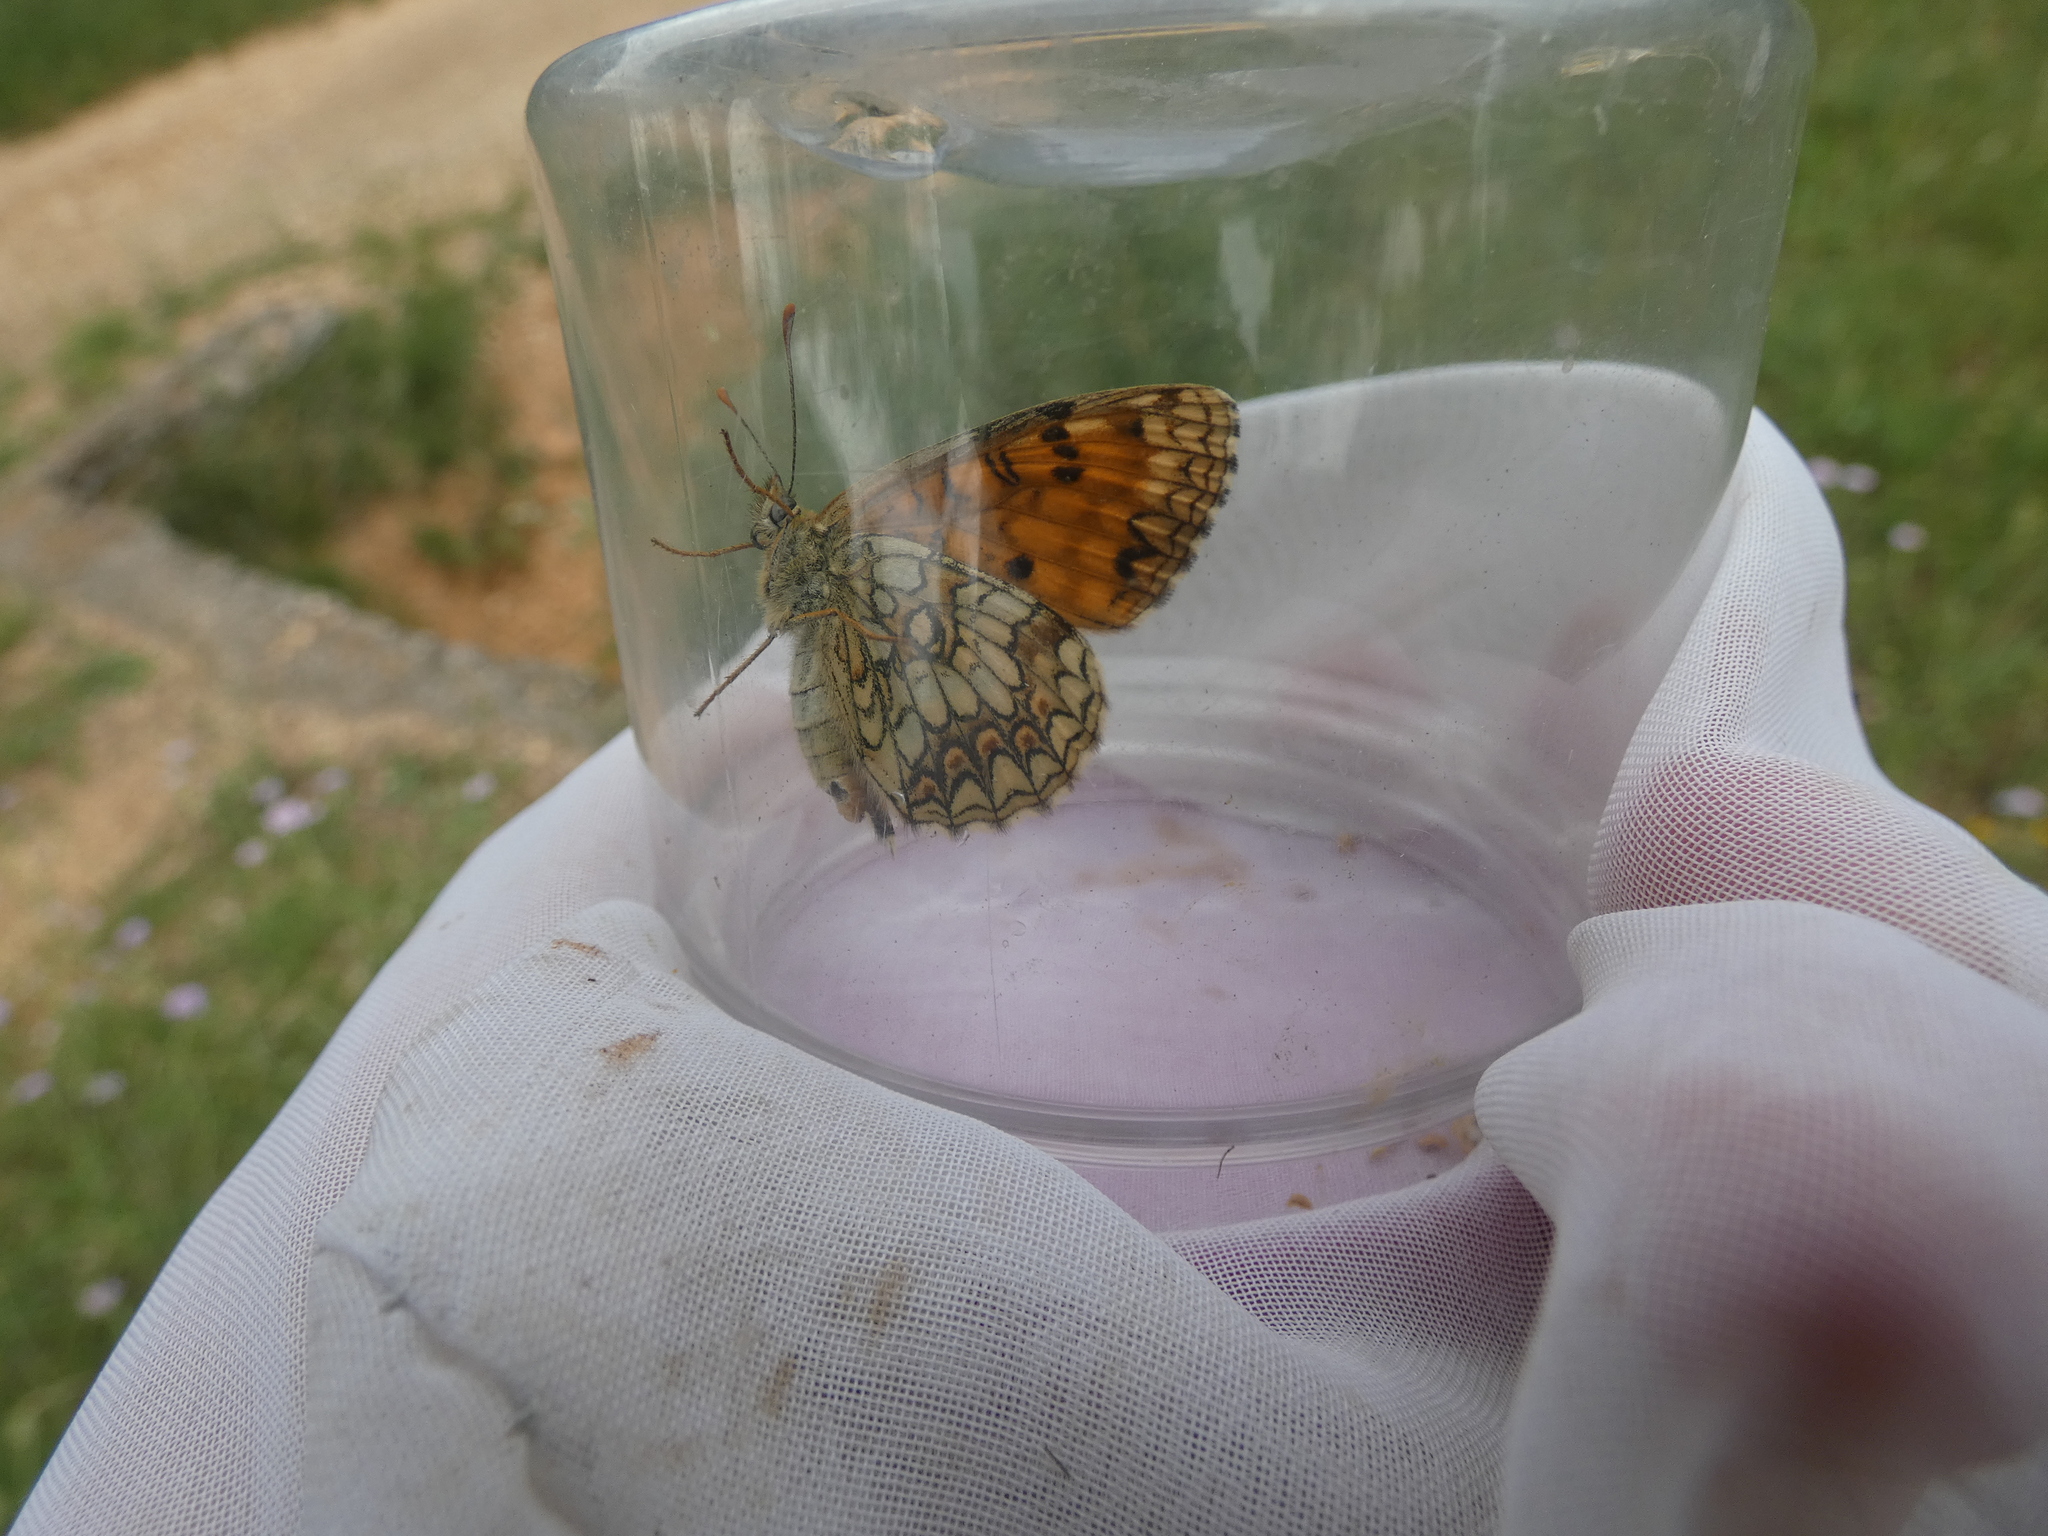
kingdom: Animalia
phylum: Arthropoda
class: Insecta
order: Lepidoptera
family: Nymphalidae
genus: Mellicta
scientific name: Mellicta athalia
